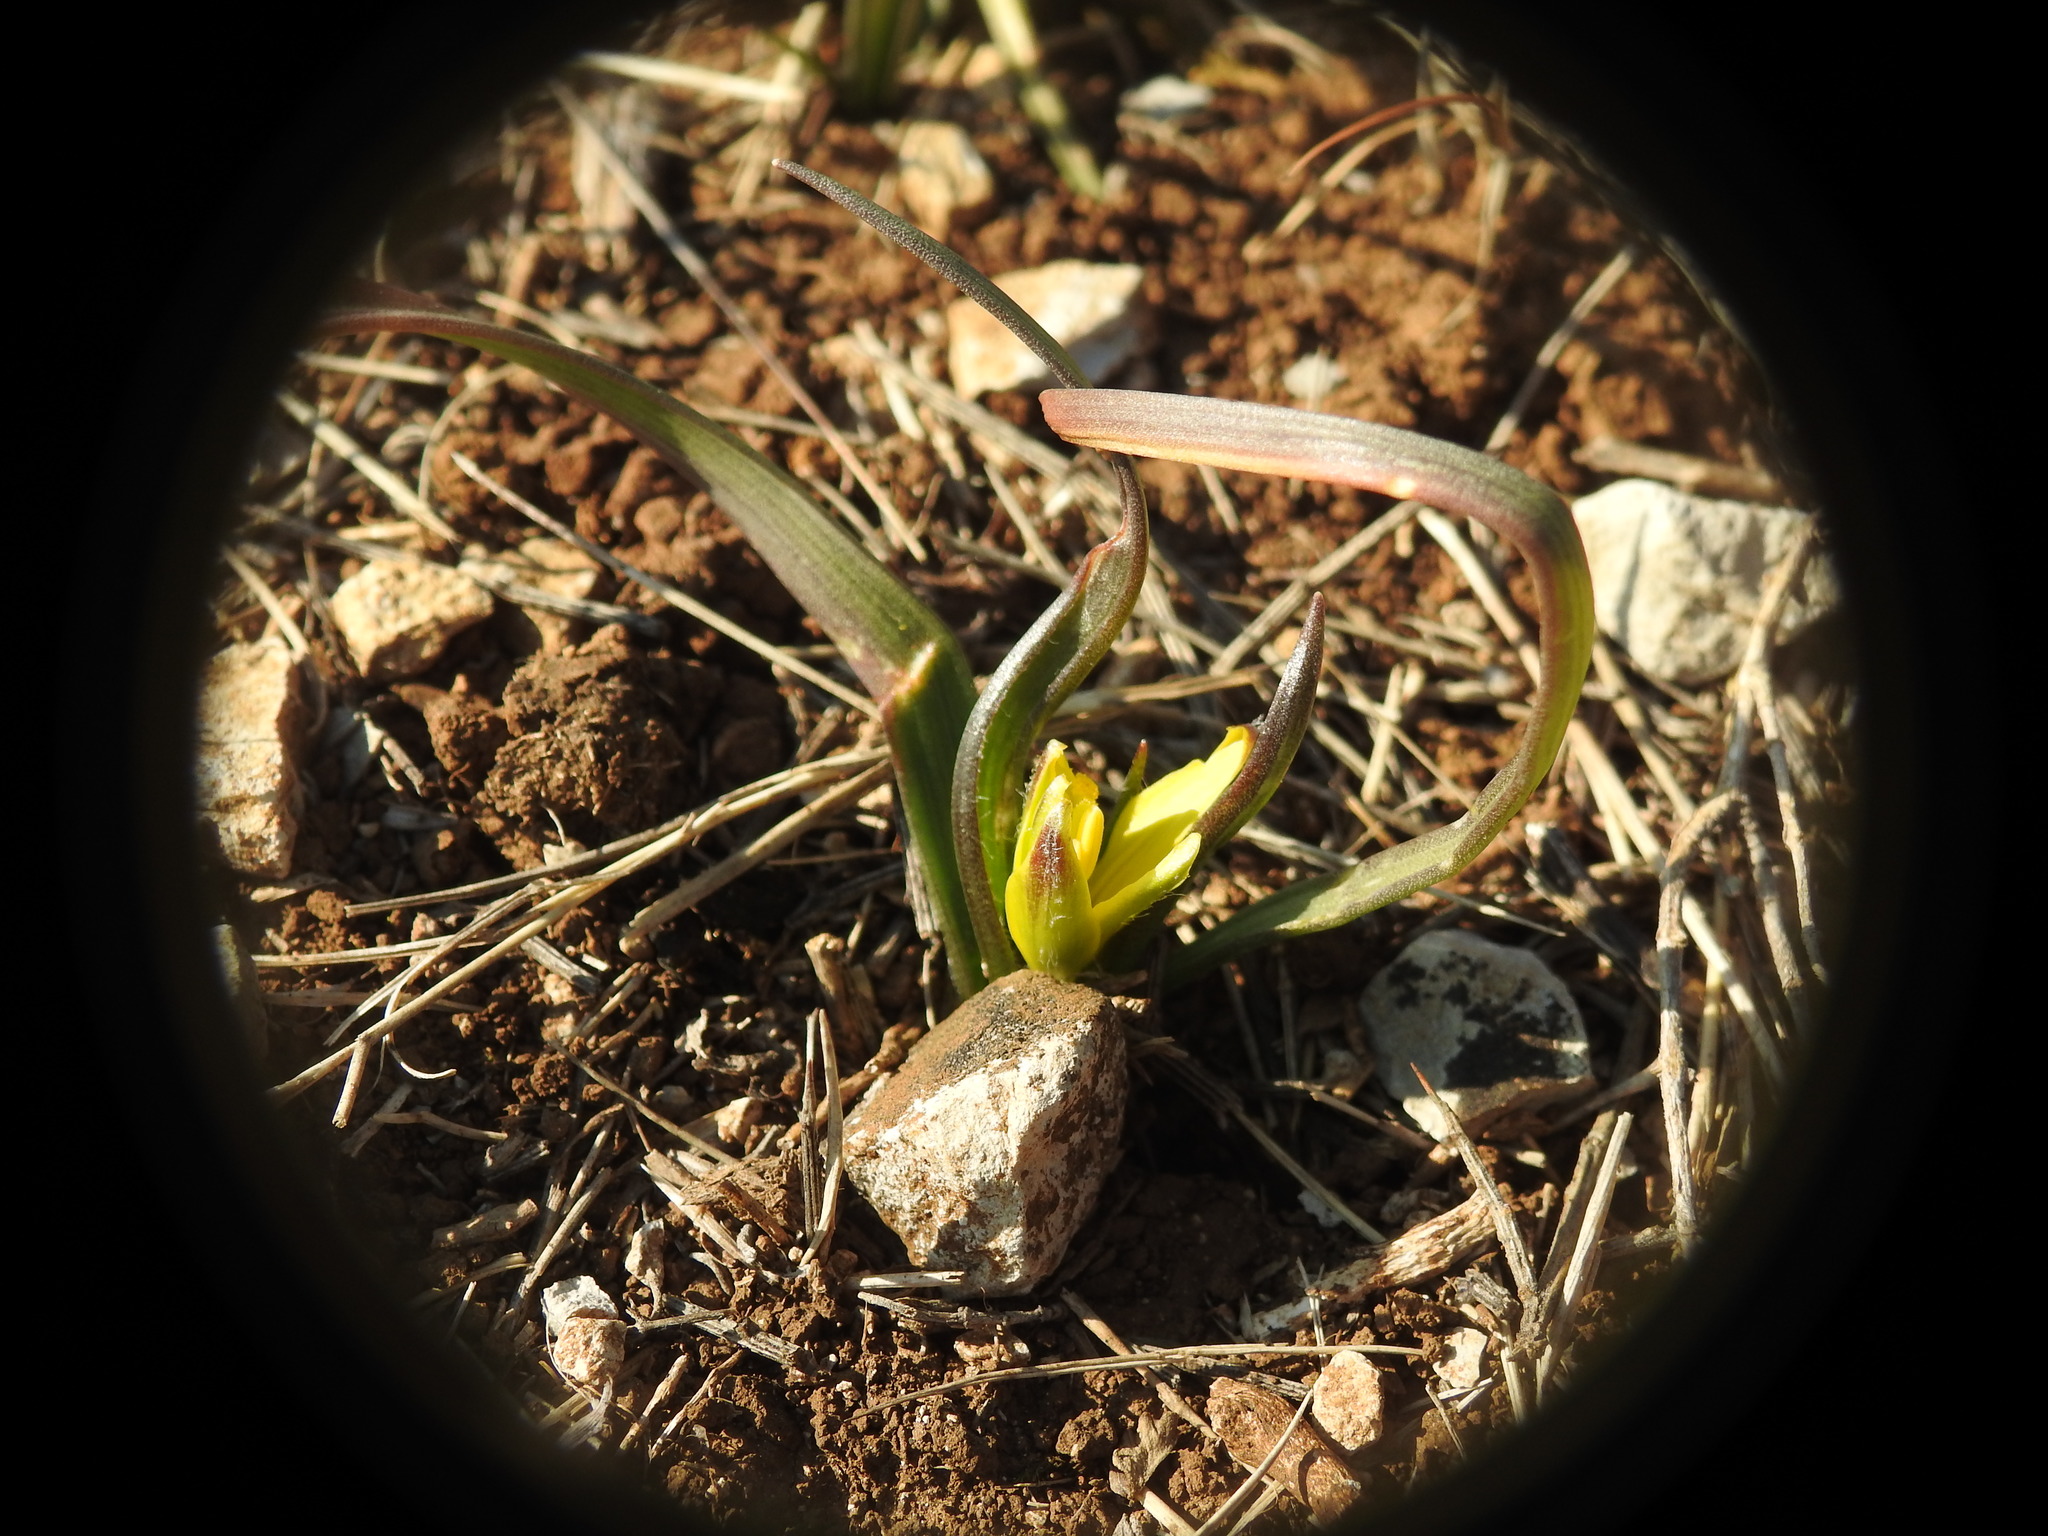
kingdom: Plantae
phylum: Tracheophyta
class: Liliopsida
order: Liliales
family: Liliaceae
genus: Gagea
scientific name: Gagea lacaitae
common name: Gagée de lacaita
